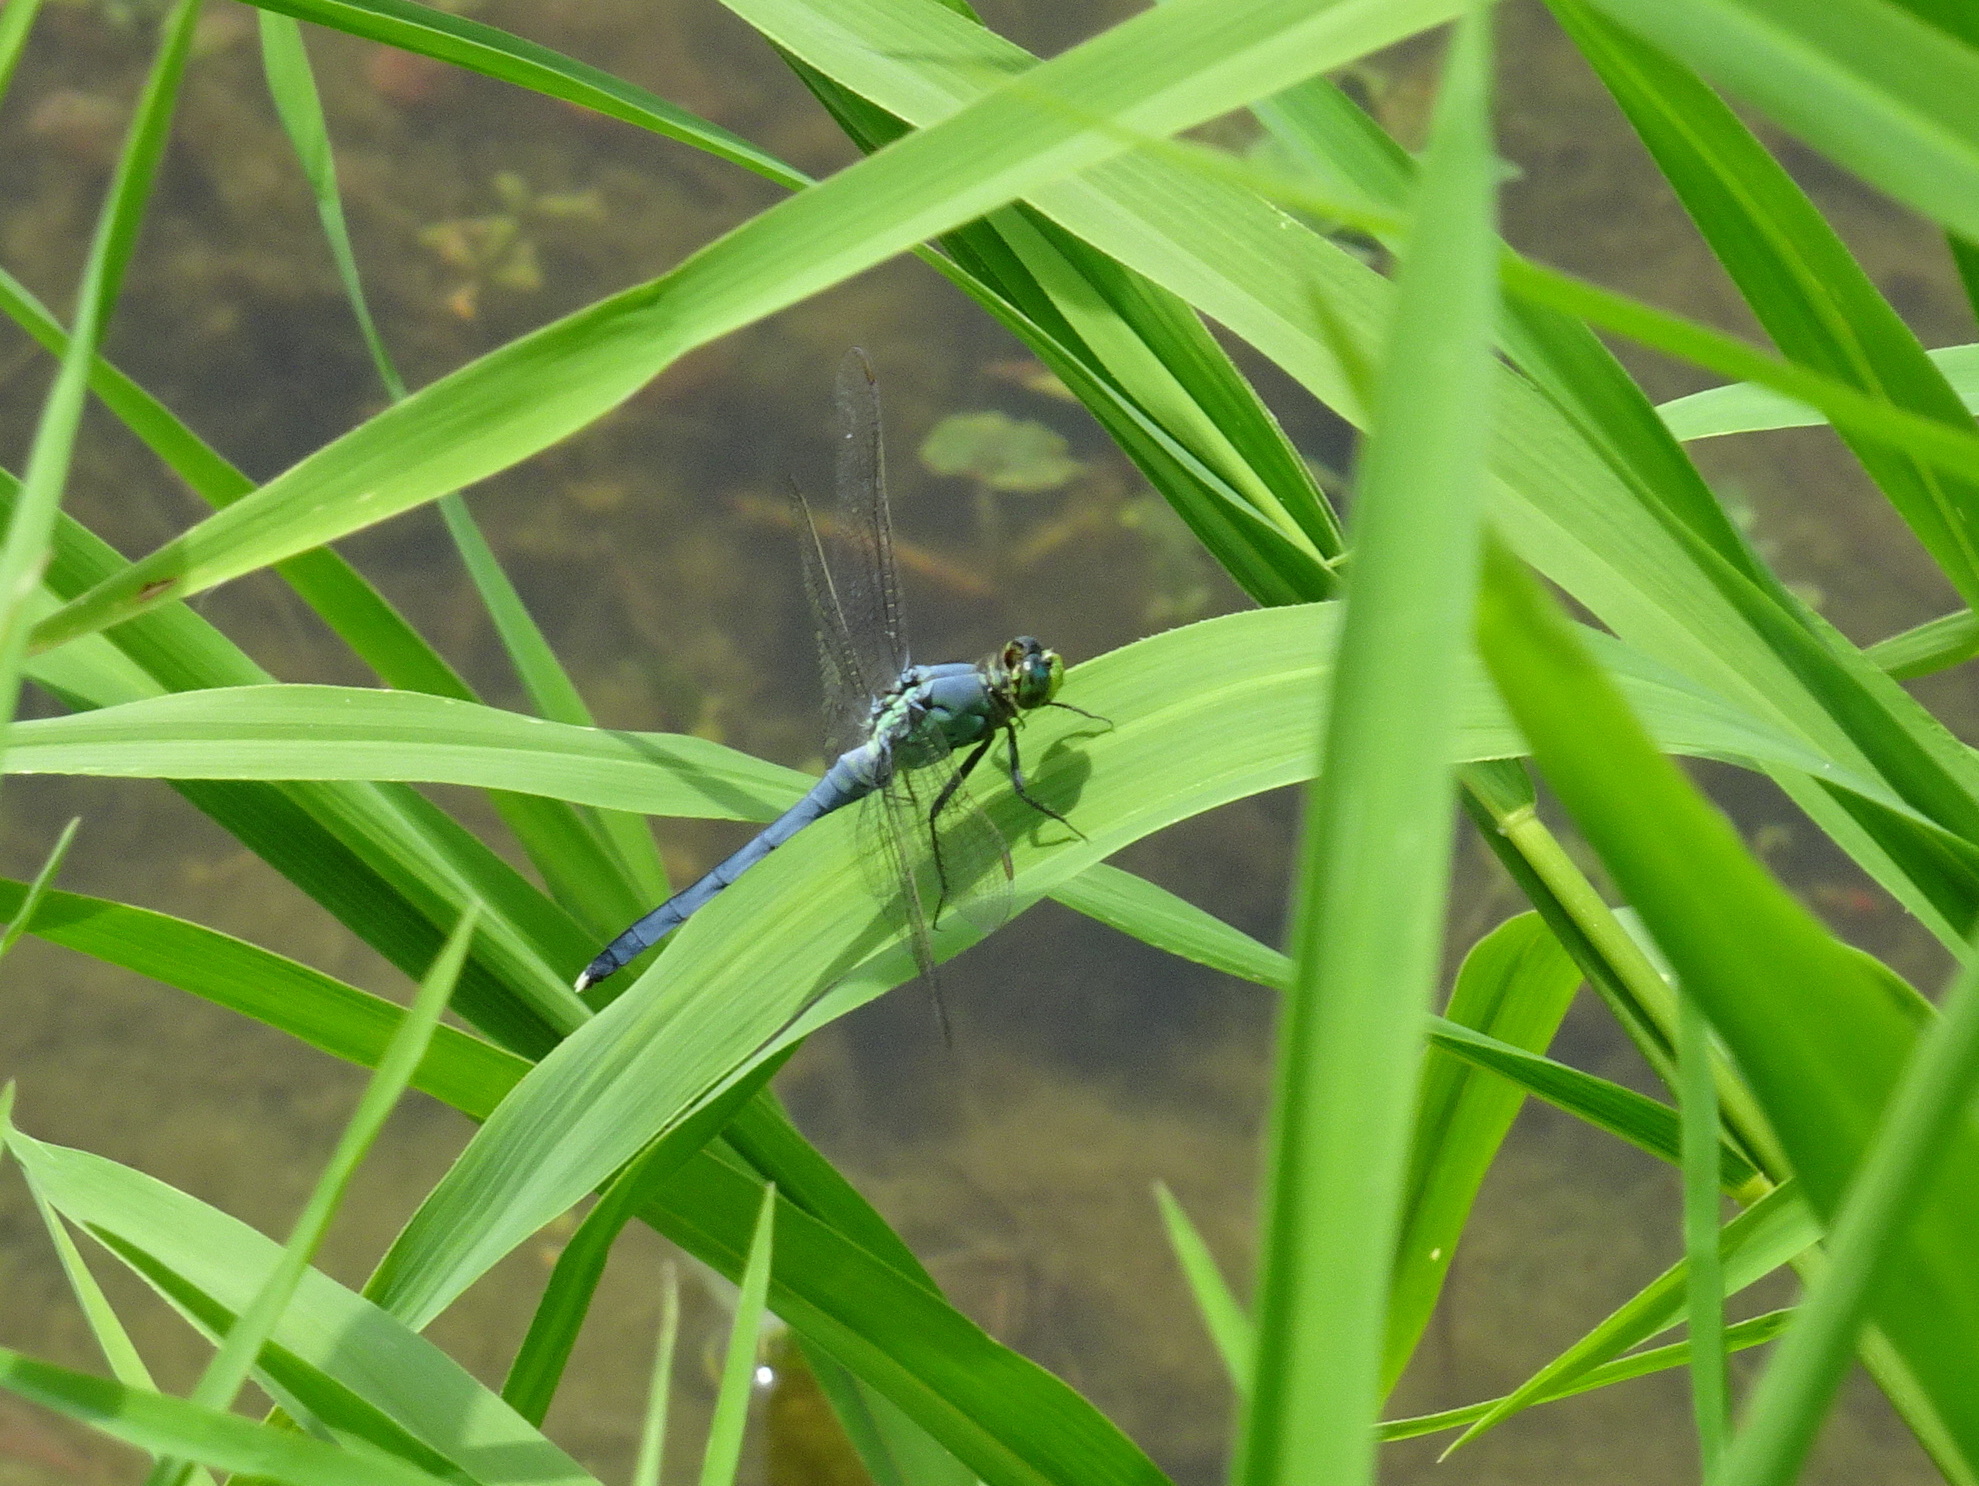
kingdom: Animalia
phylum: Arthropoda
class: Insecta
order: Odonata
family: Libellulidae
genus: Erythemis
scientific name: Erythemis simplicicollis
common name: Eastern pondhawk
